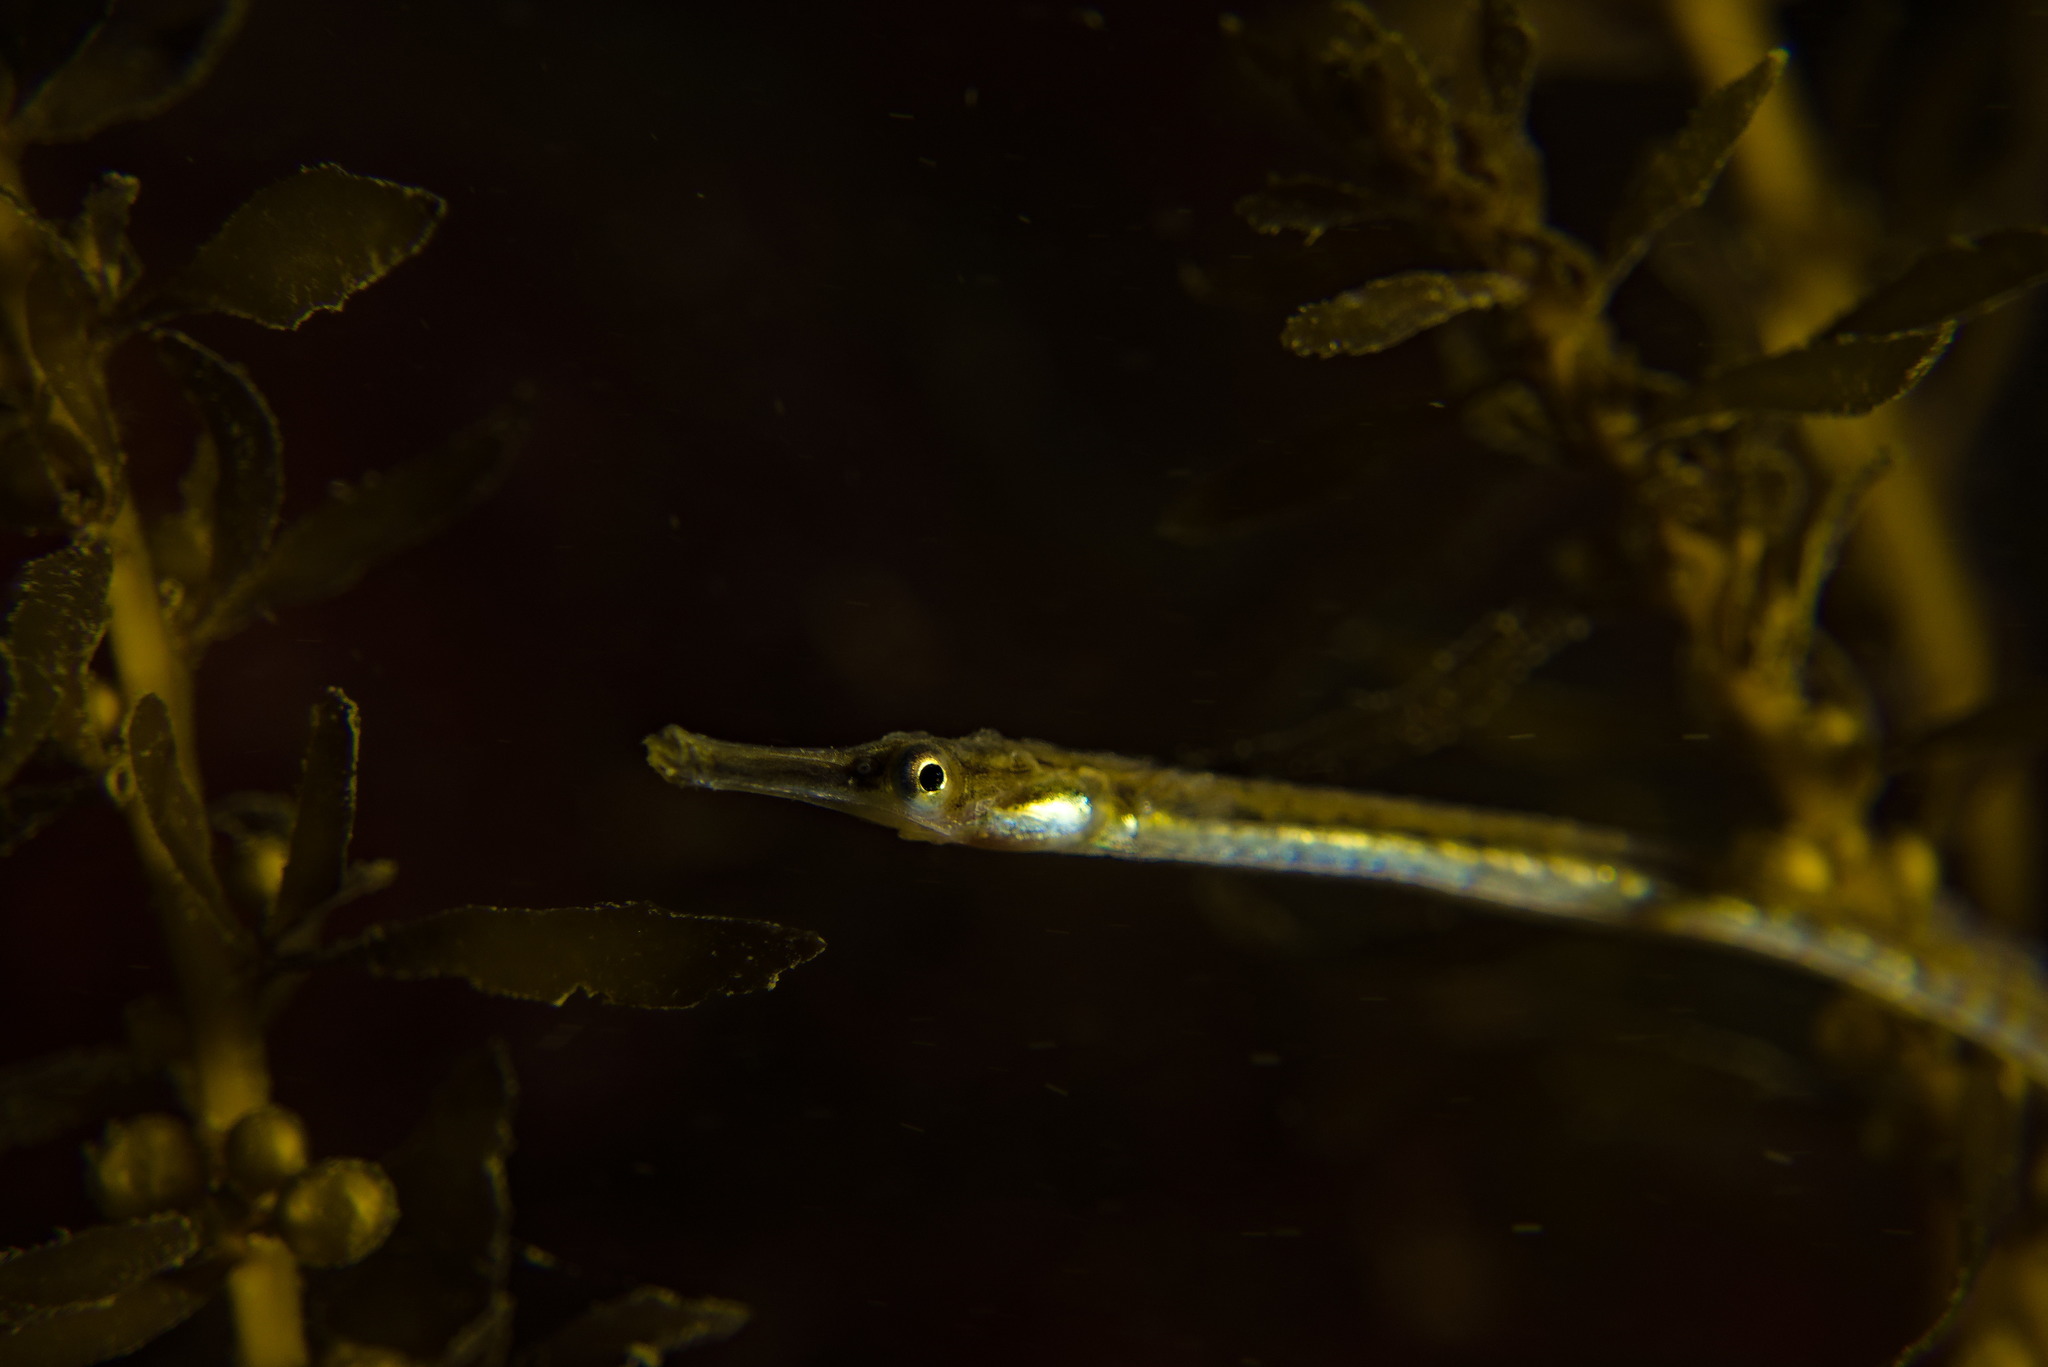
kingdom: Animalia
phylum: Chordata
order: Syngnathiformes
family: Syngnathidae
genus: Syngnathus
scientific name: Syngnathus rostellatus
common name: Nilsson's pipefish
